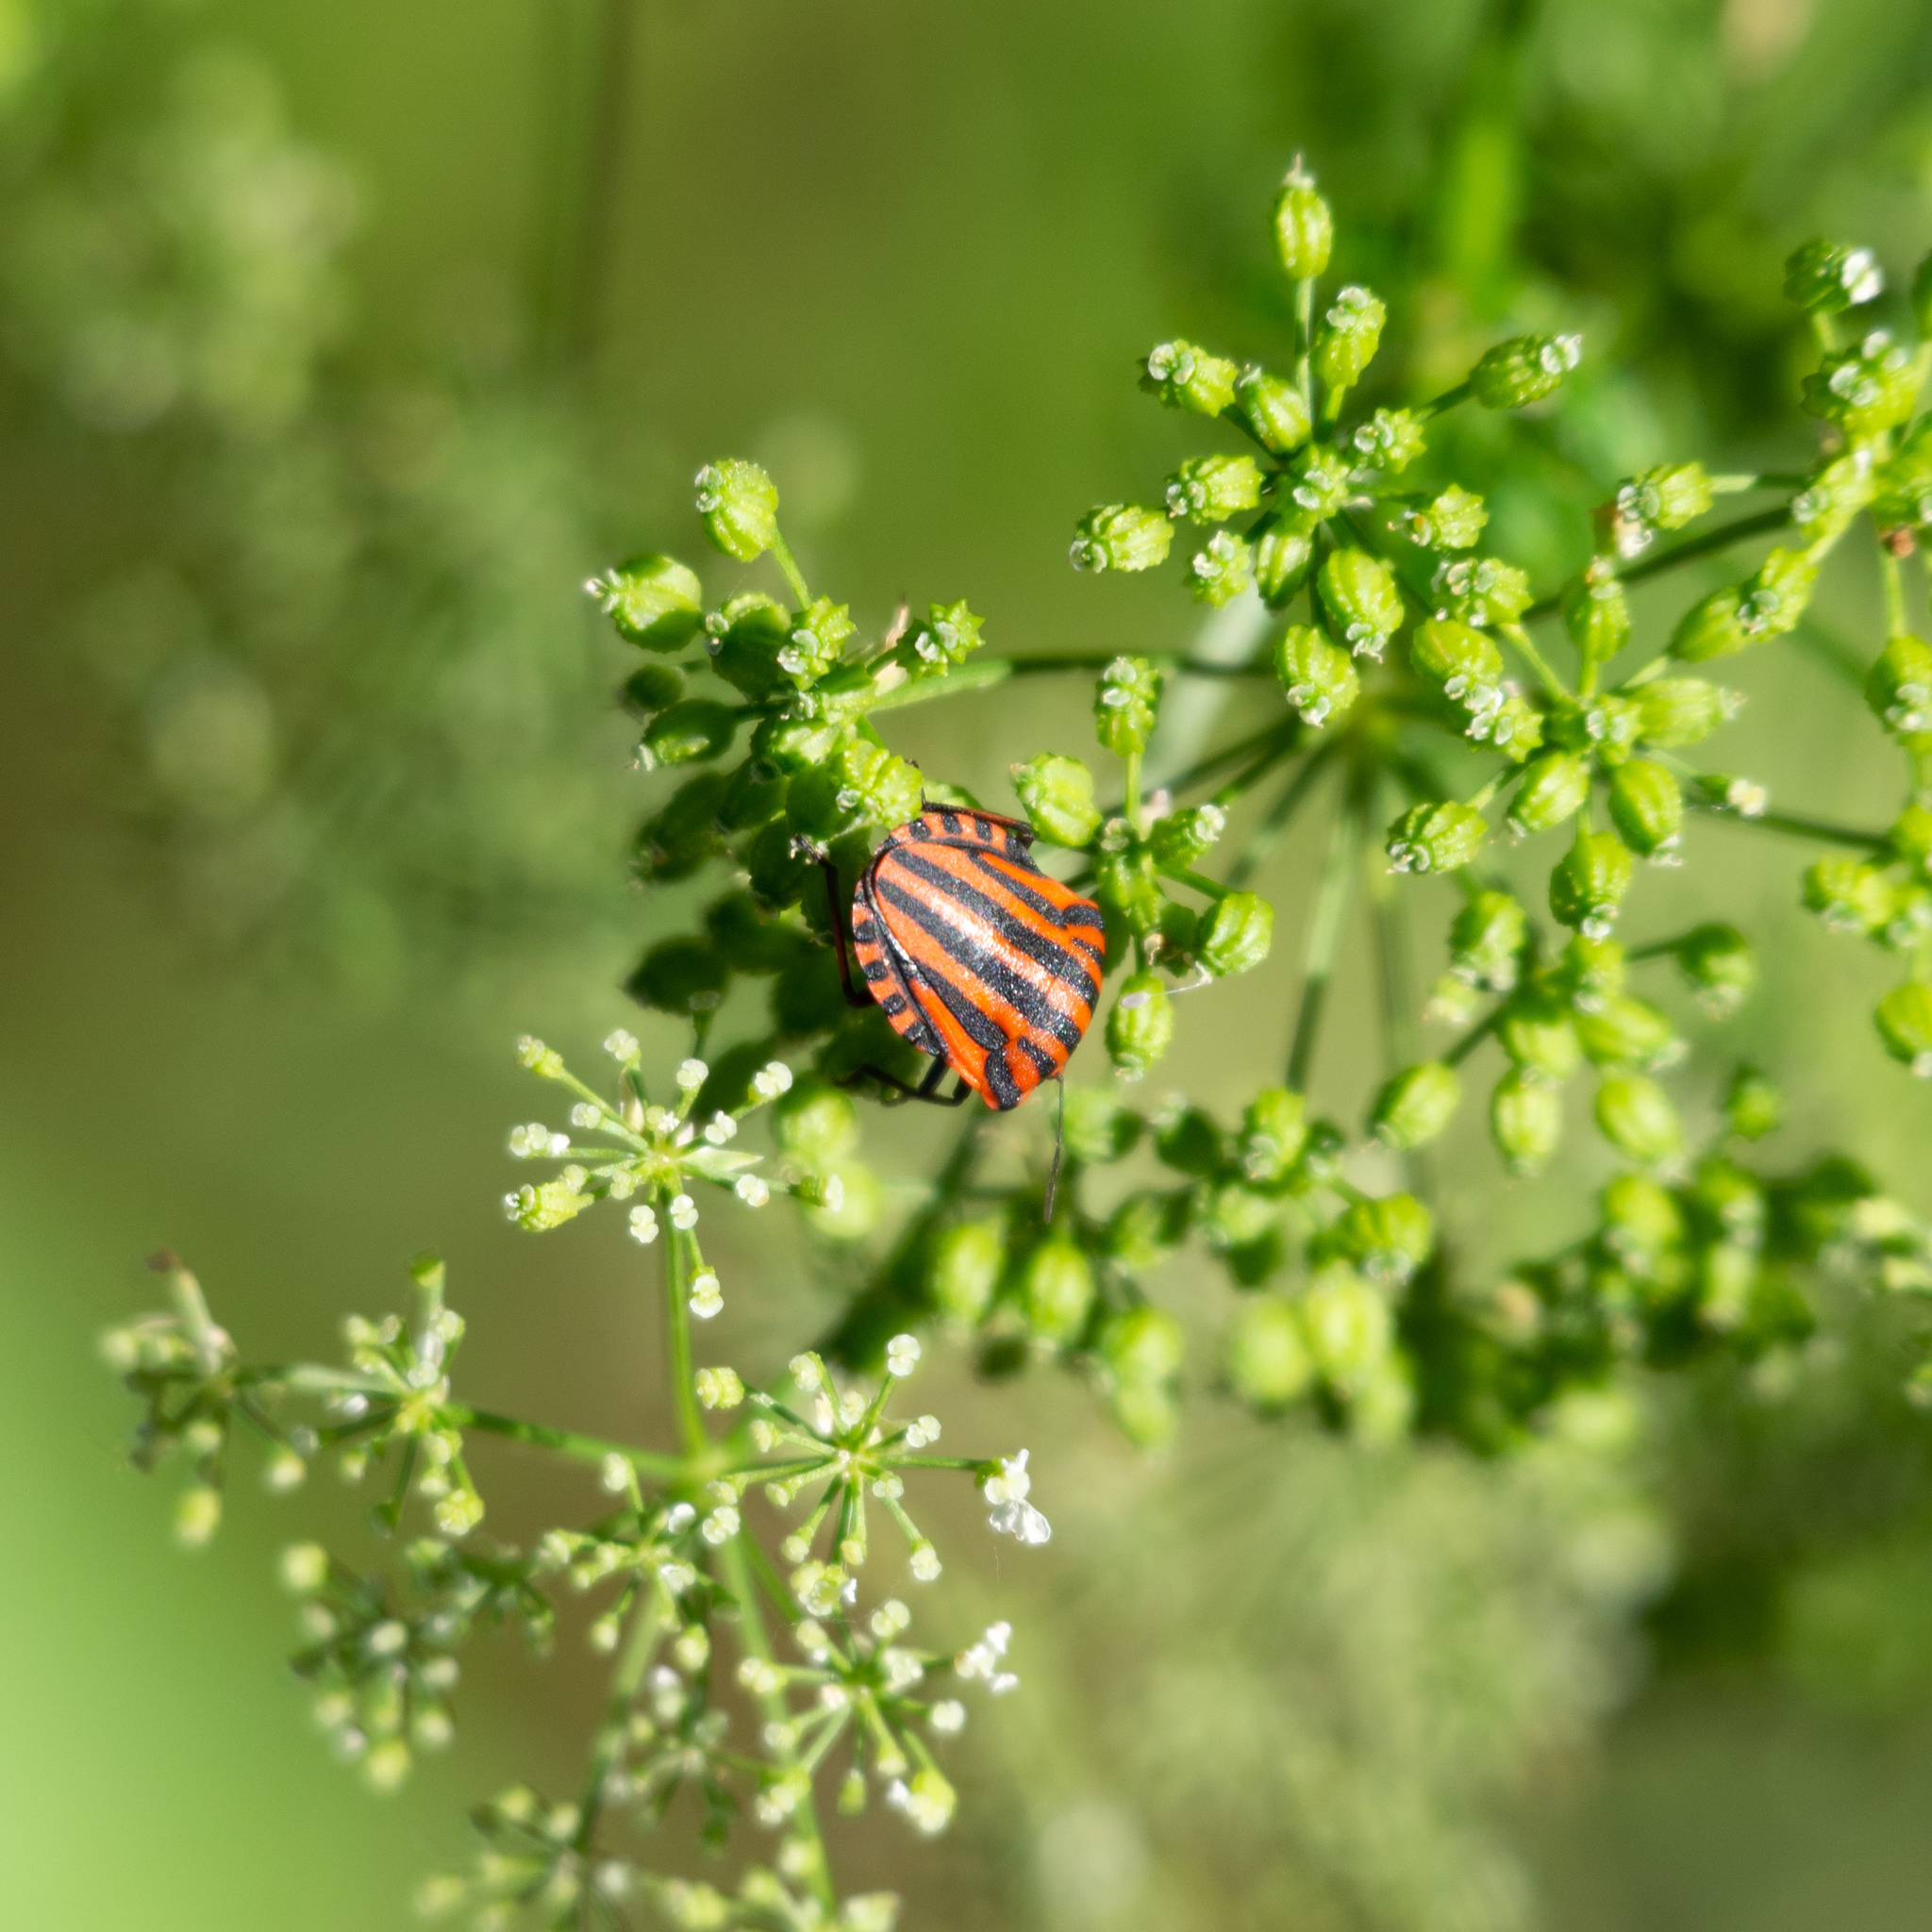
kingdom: Animalia
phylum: Arthropoda
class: Insecta
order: Hemiptera
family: Pentatomidae
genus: Graphosoma
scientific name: Graphosoma italicum
